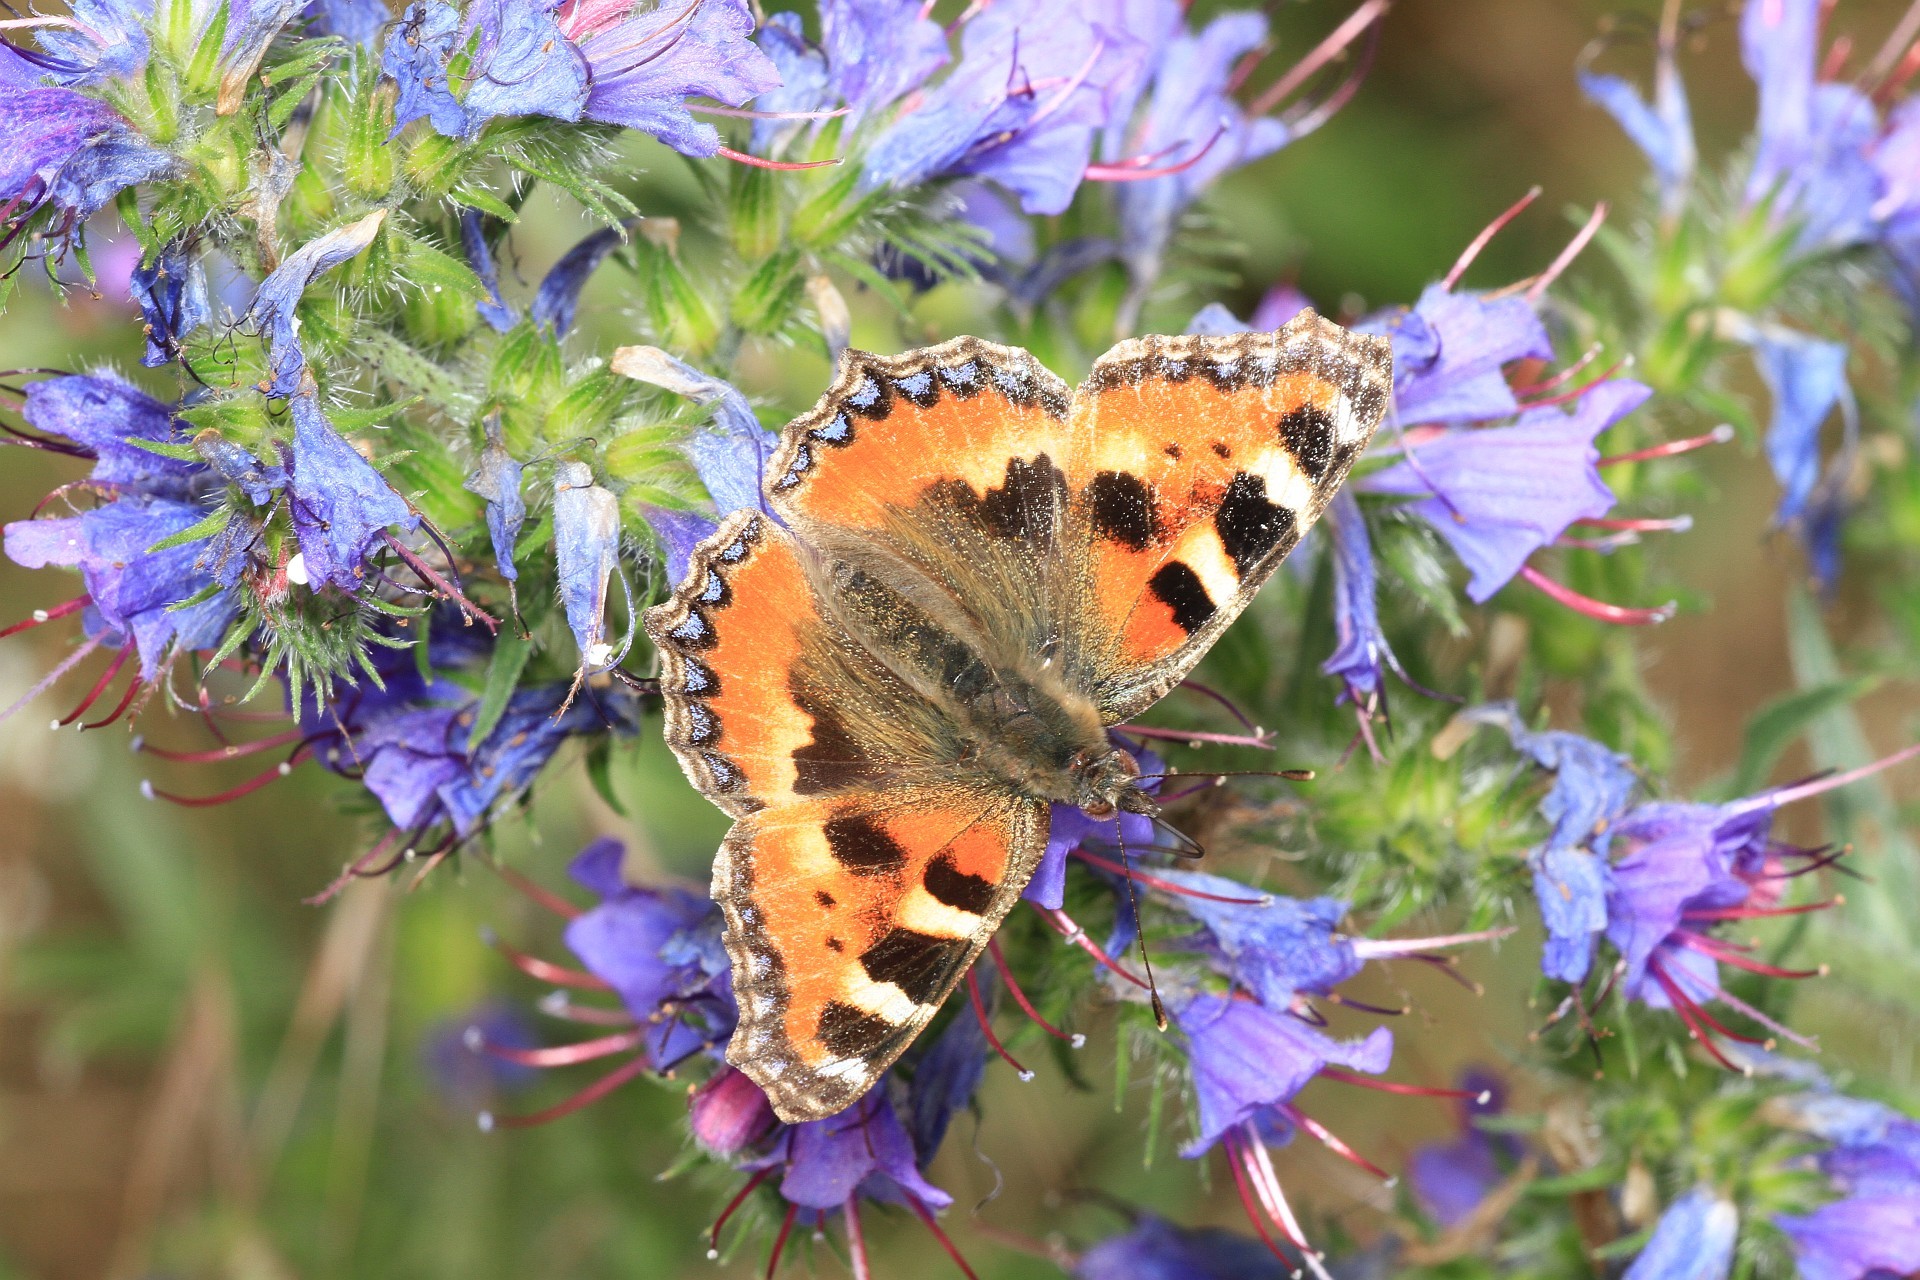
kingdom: Animalia
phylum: Arthropoda
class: Insecta
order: Lepidoptera
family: Nymphalidae
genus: Aglais
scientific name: Aglais urticae
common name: Small tortoiseshell
